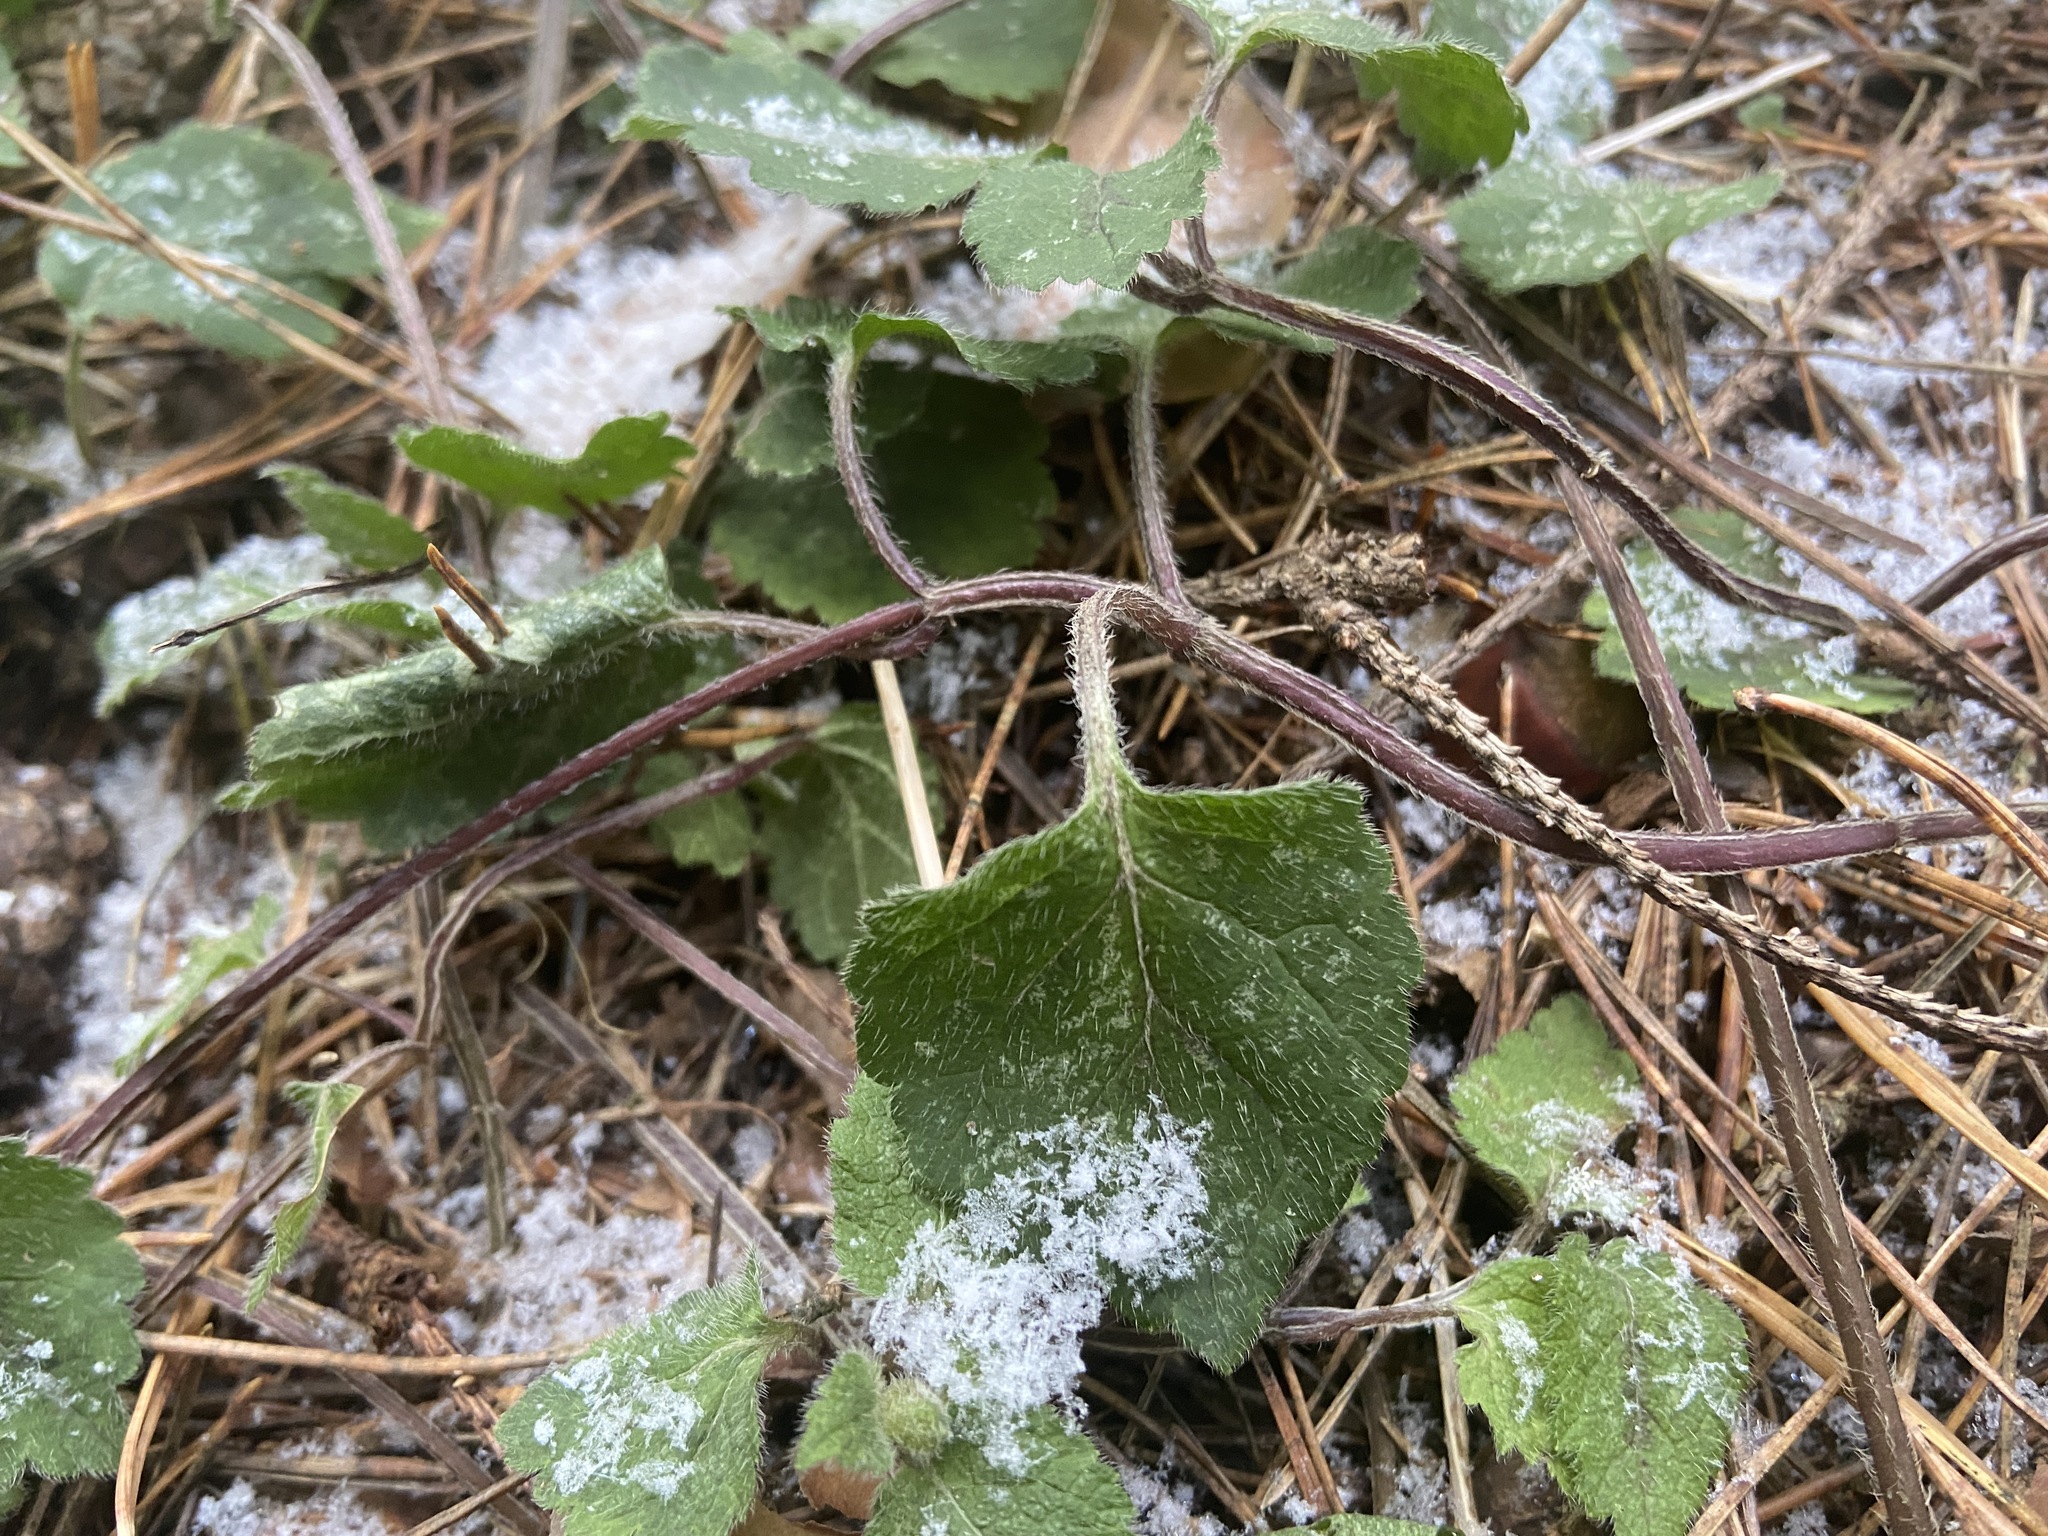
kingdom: Plantae
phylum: Tracheophyta
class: Magnoliopsida
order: Lamiales
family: Lamiaceae
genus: Lamium
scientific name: Lamium galeobdolon
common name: Yellow archangel
